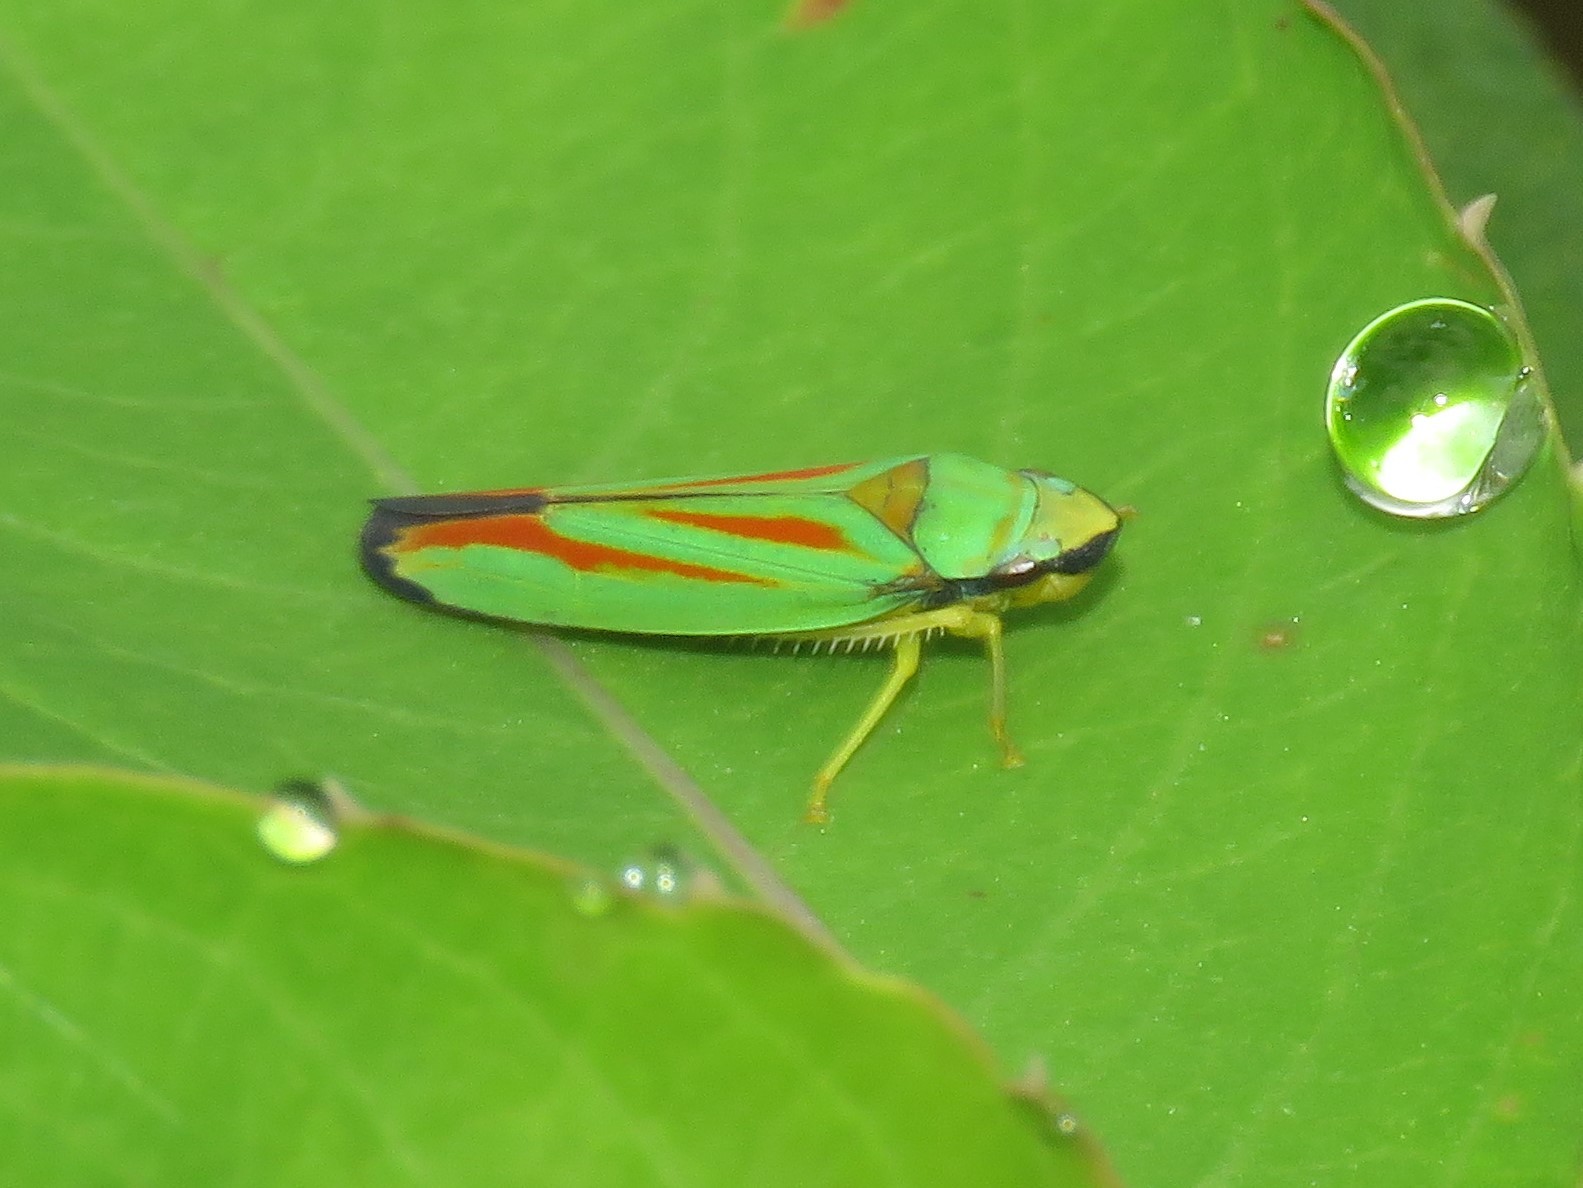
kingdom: Animalia
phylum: Arthropoda
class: Insecta
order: Hemiptera
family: Cicadellidae
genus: Graphocephala
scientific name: Graphocephala fennahi
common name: Rhododendron leafhopper
